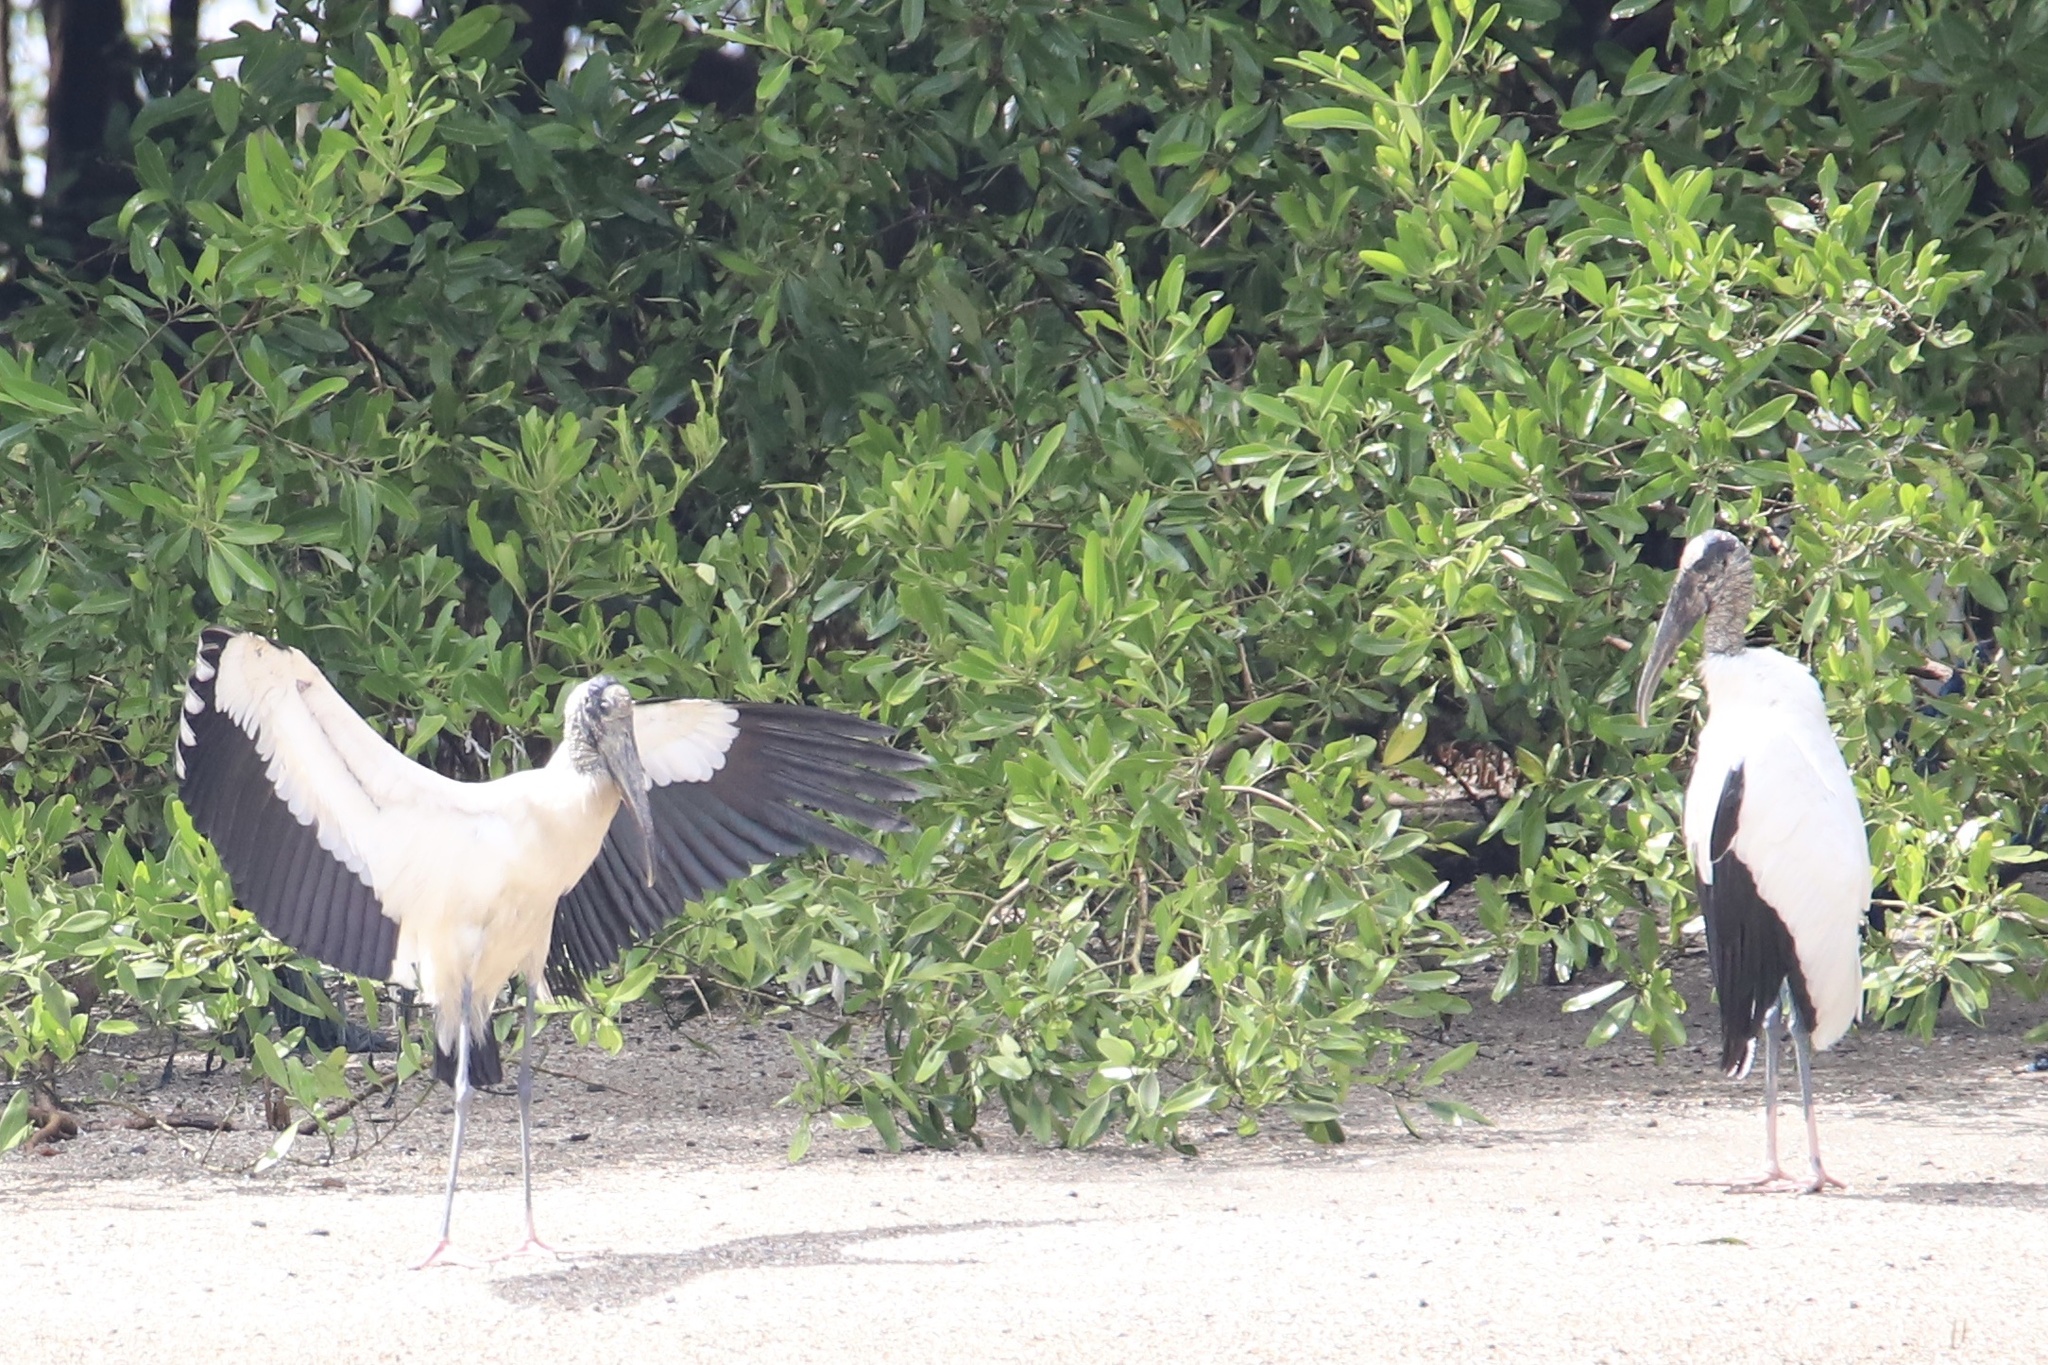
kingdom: Animalia
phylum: Chordata
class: Aves
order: Ciconiiformes
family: Ciconiidae
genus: Mycteria
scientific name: Mycteria americana
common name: Wood stork
